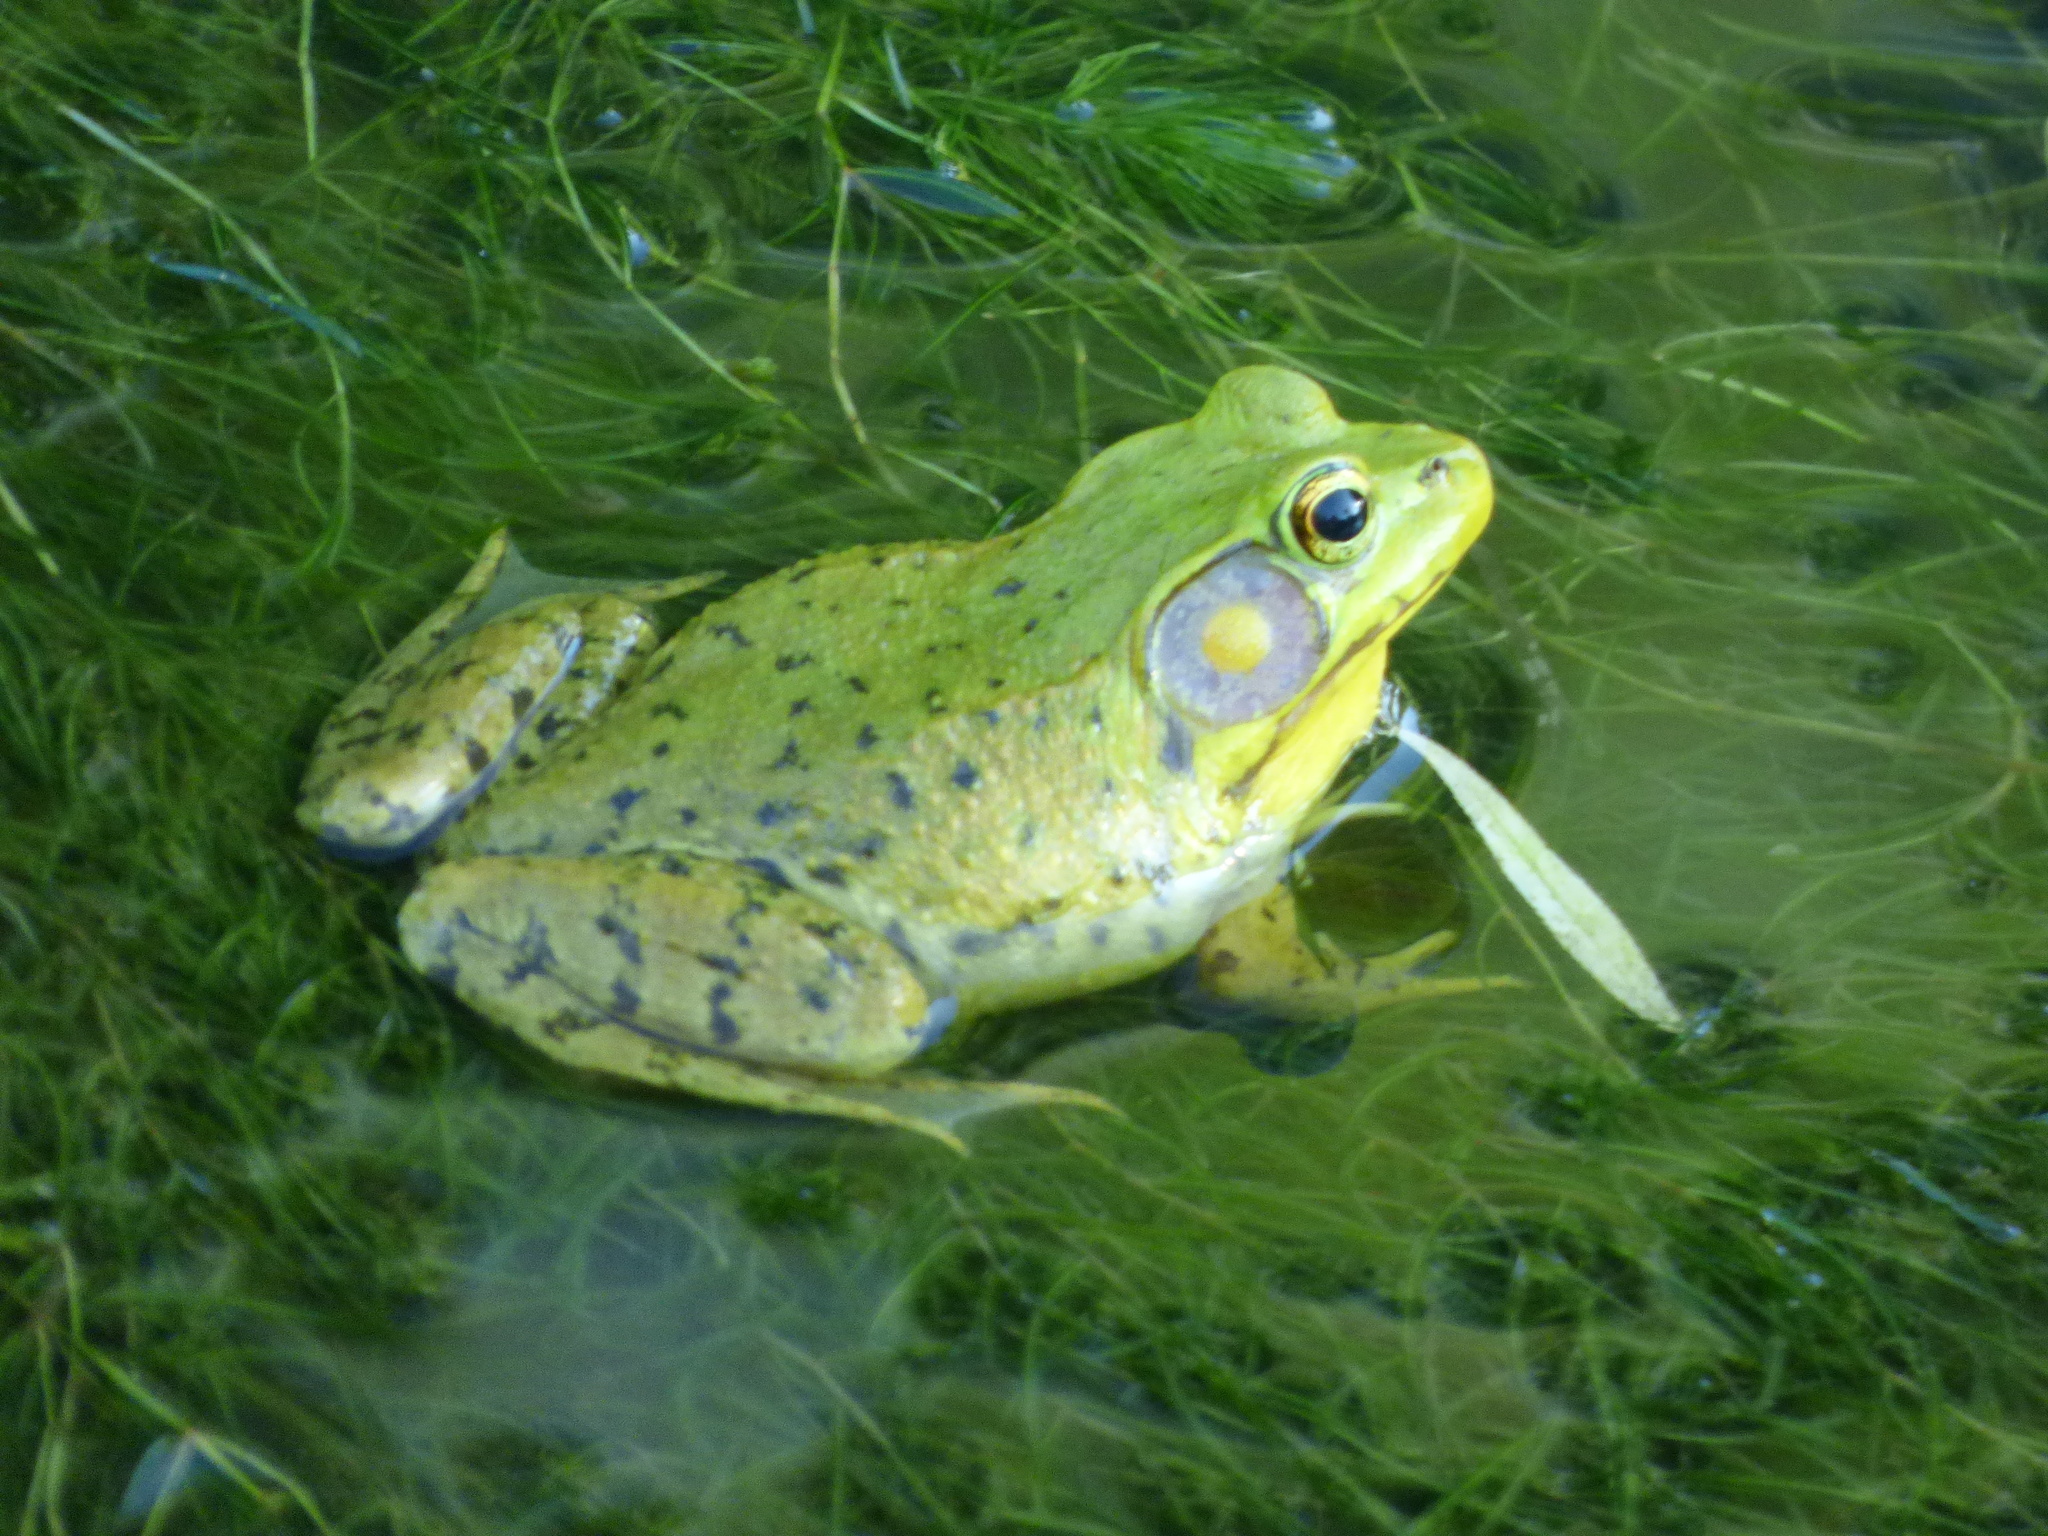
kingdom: Animalia
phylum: Chordata
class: Amphibia
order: Anura
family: Ranidae
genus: Lithobates
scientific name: Lithobates clamitans
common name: Green frog
